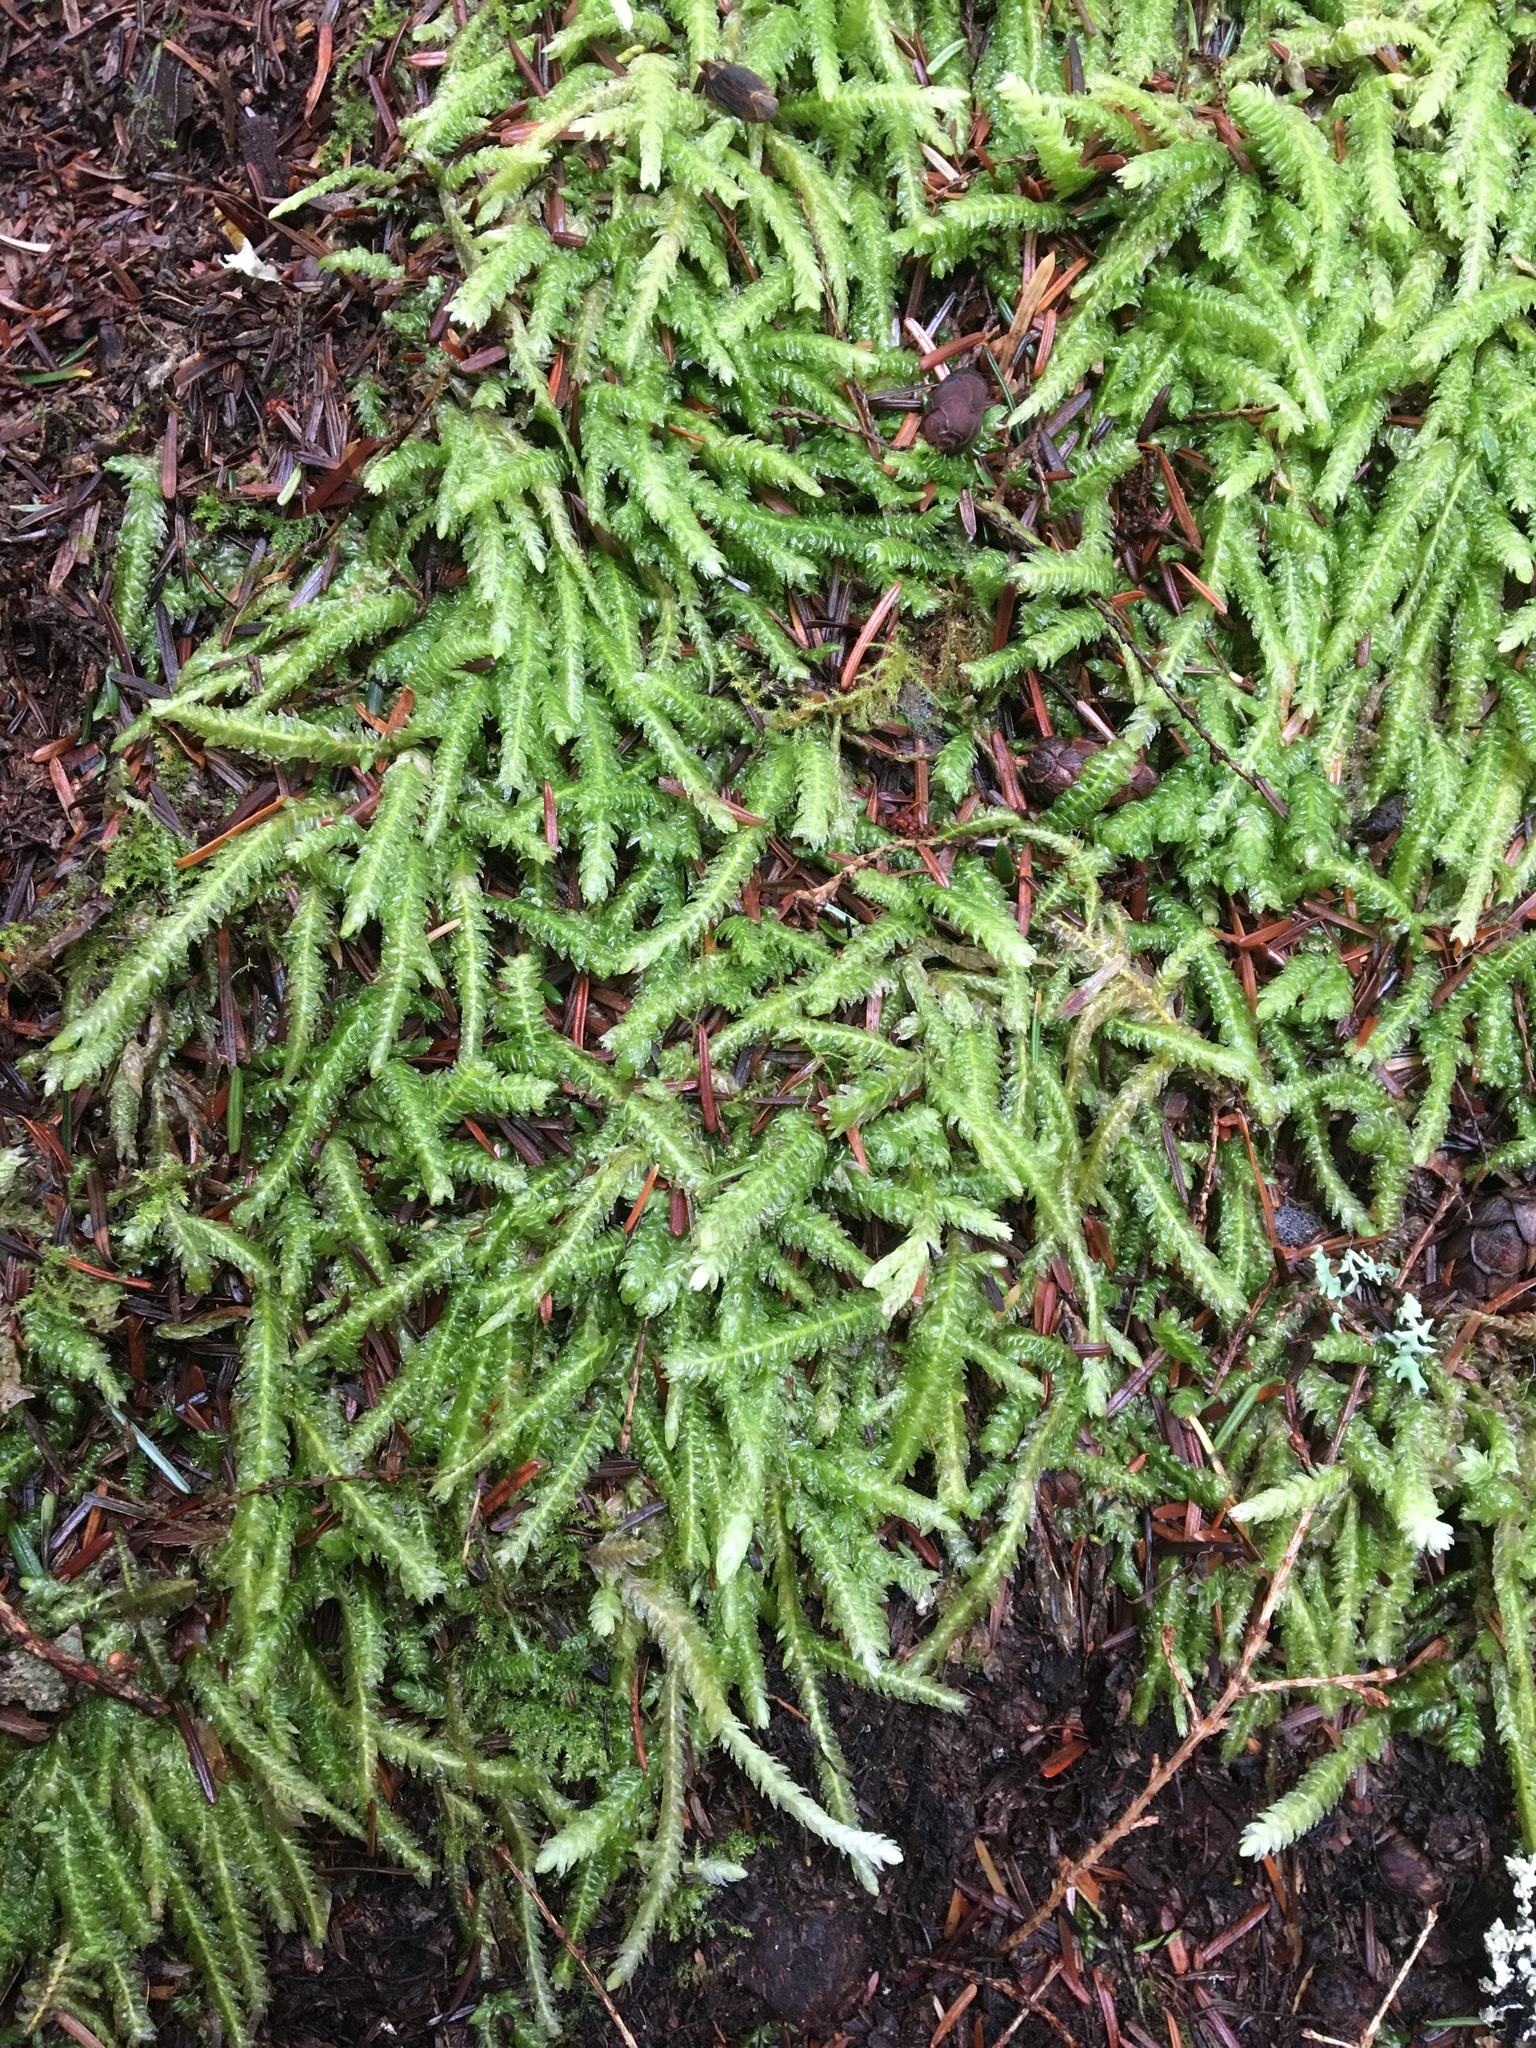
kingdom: Plantae
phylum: Bryophyta
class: Bryopsida
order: Hypnales
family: Plagiotheciaceae
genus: Plagiothecium
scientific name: Plagiothecium undulatum
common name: Waved silk-moss
